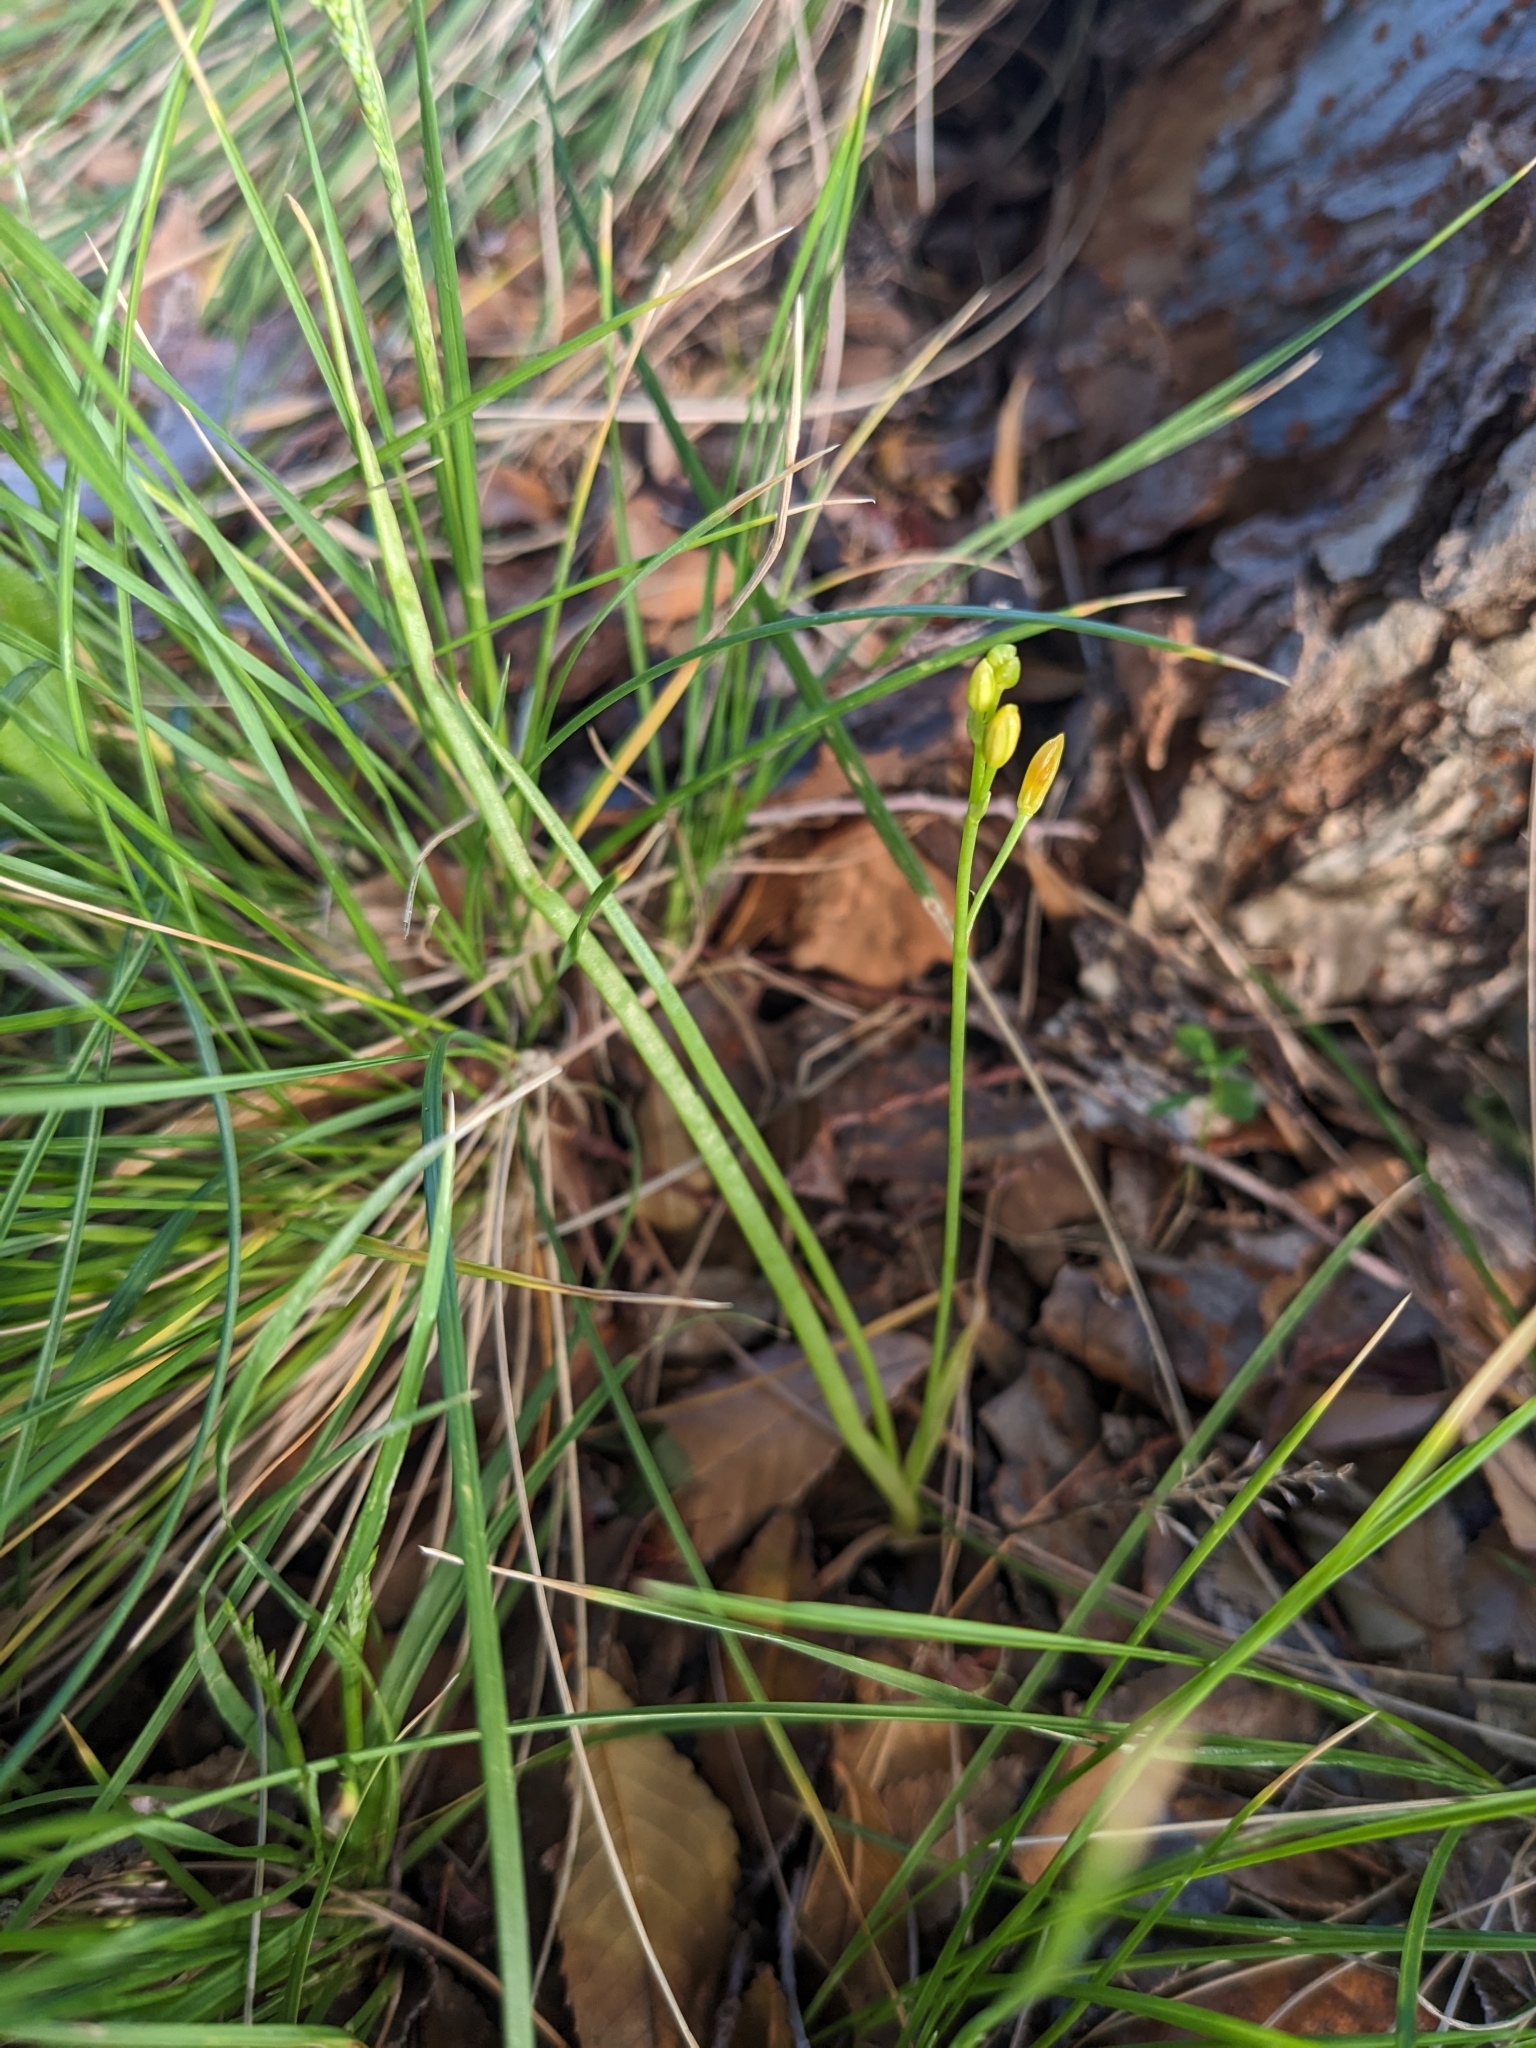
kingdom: Plantae
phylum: Tracheophyta
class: Liliopsida
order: Asparagales
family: Asphodelaceae
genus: Bulbine
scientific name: Bulbine bulbosa
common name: Golden-lily
